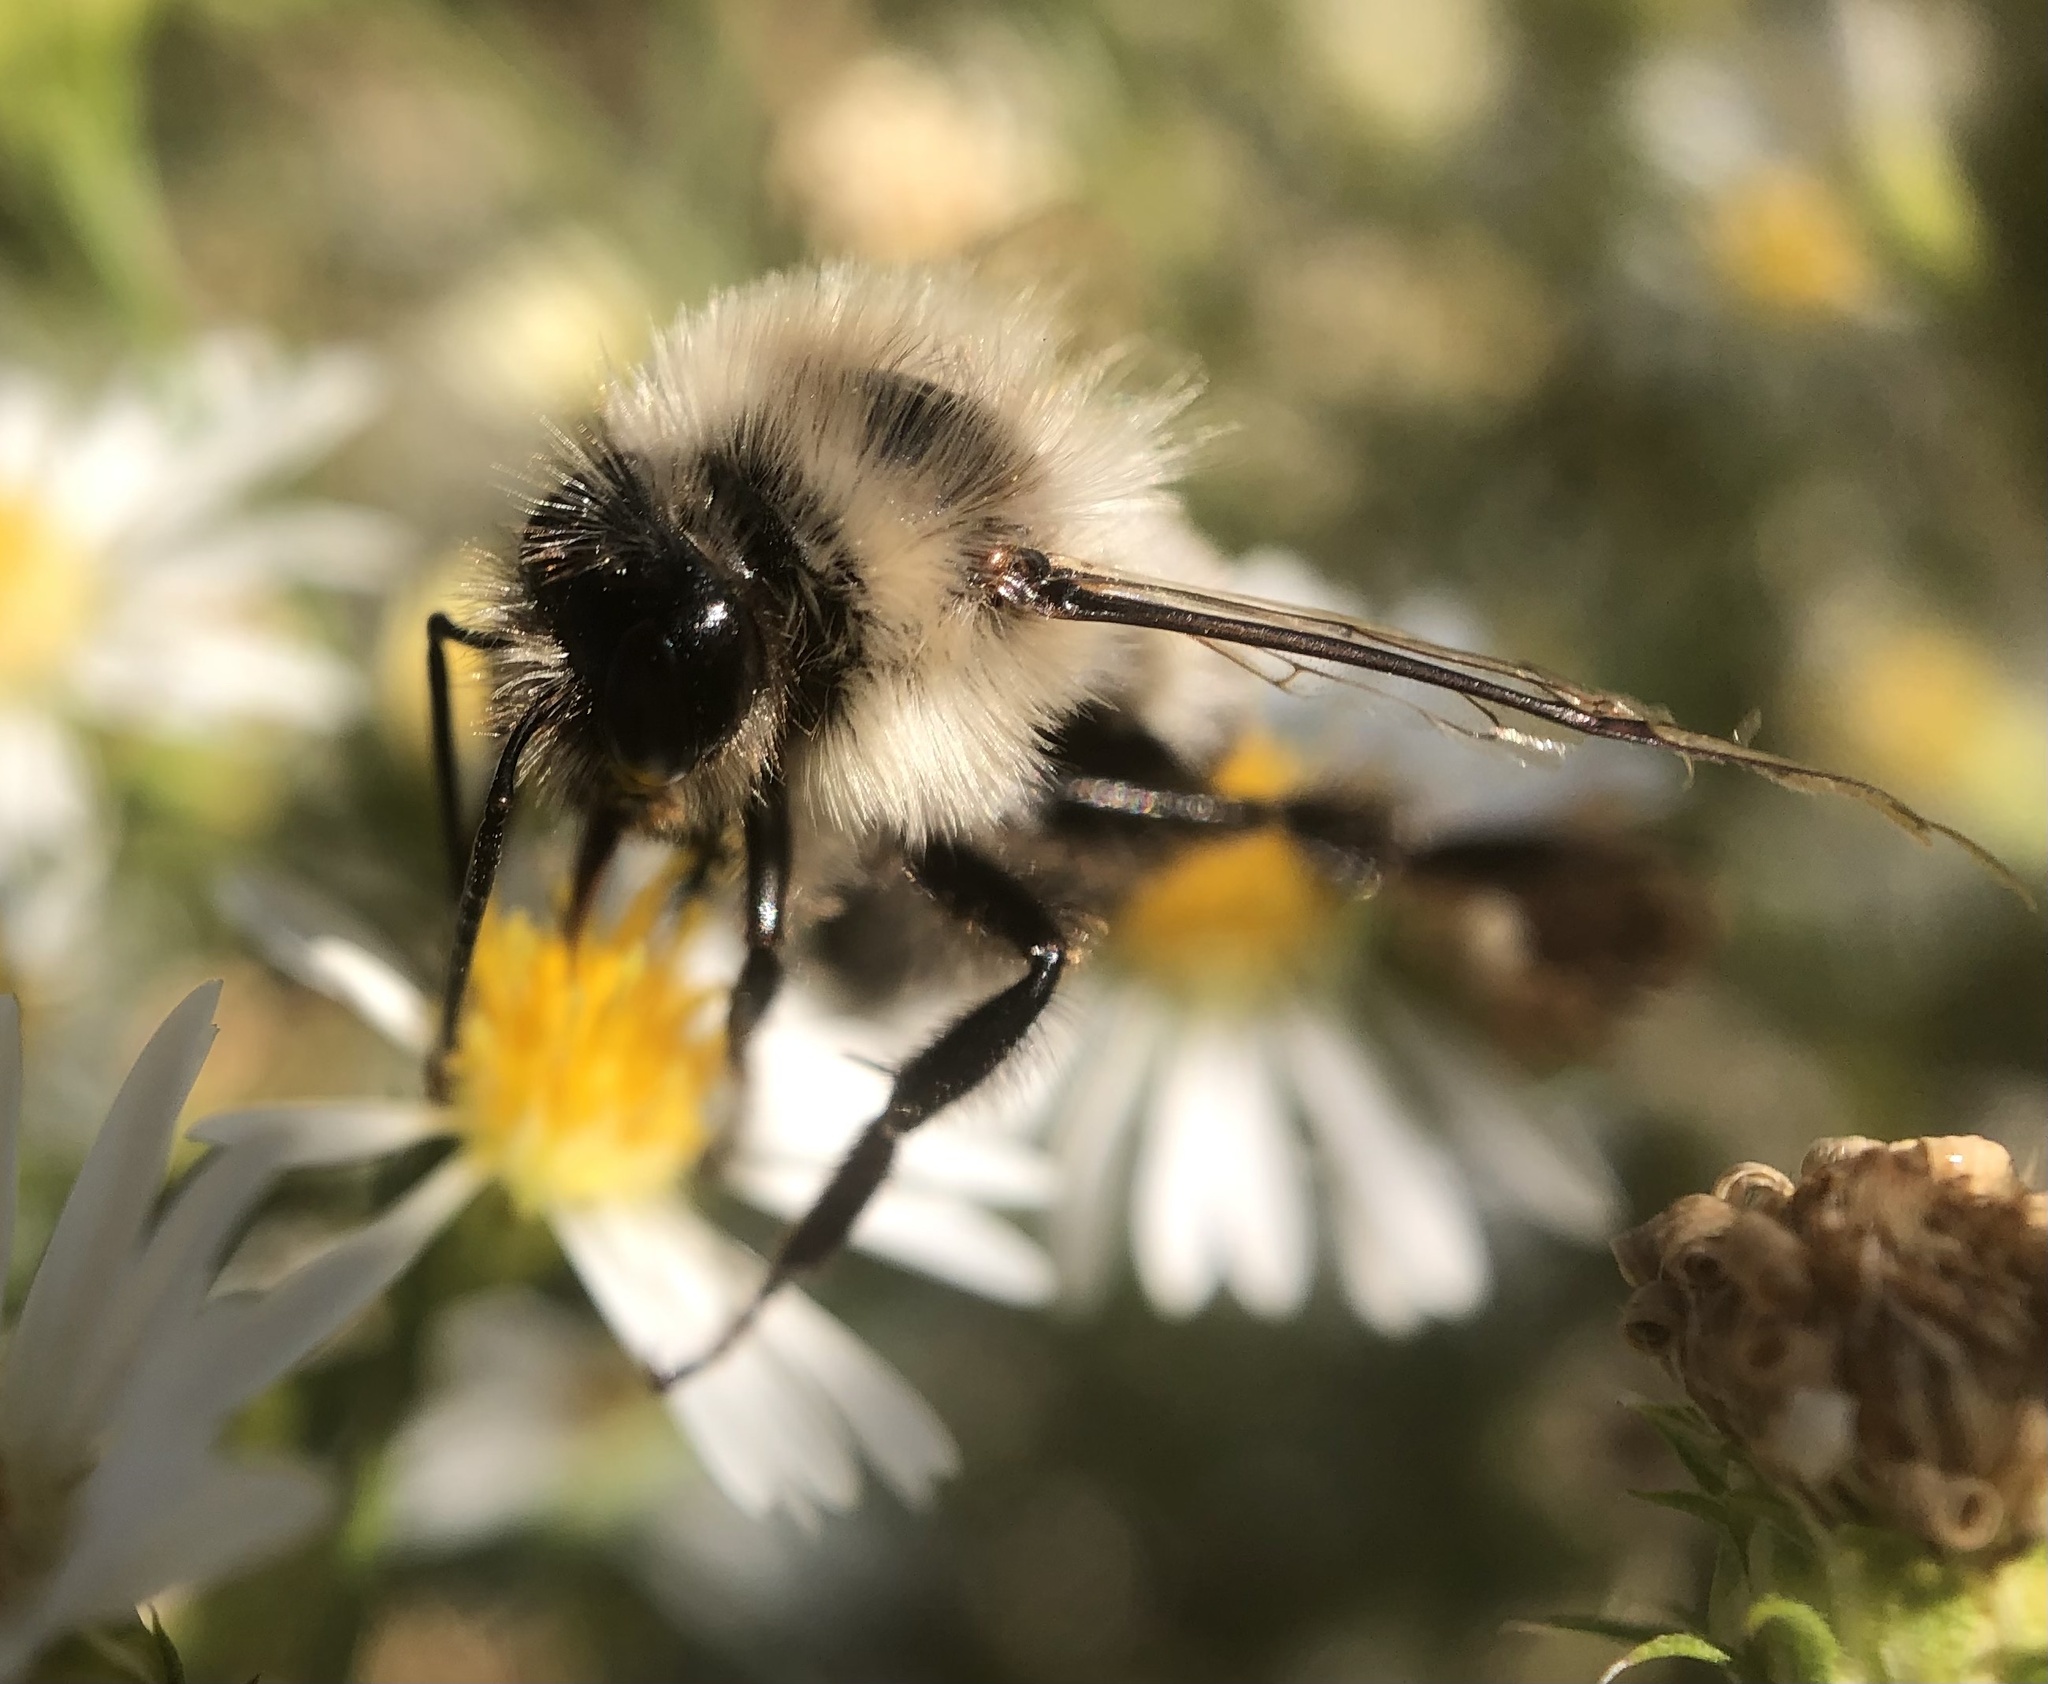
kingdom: Animalia
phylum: Arthropoda
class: Insecta
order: Hymenoptera
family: Apidae
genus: Bombus
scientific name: Bombus impatiens
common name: Common eastern bumble bee
